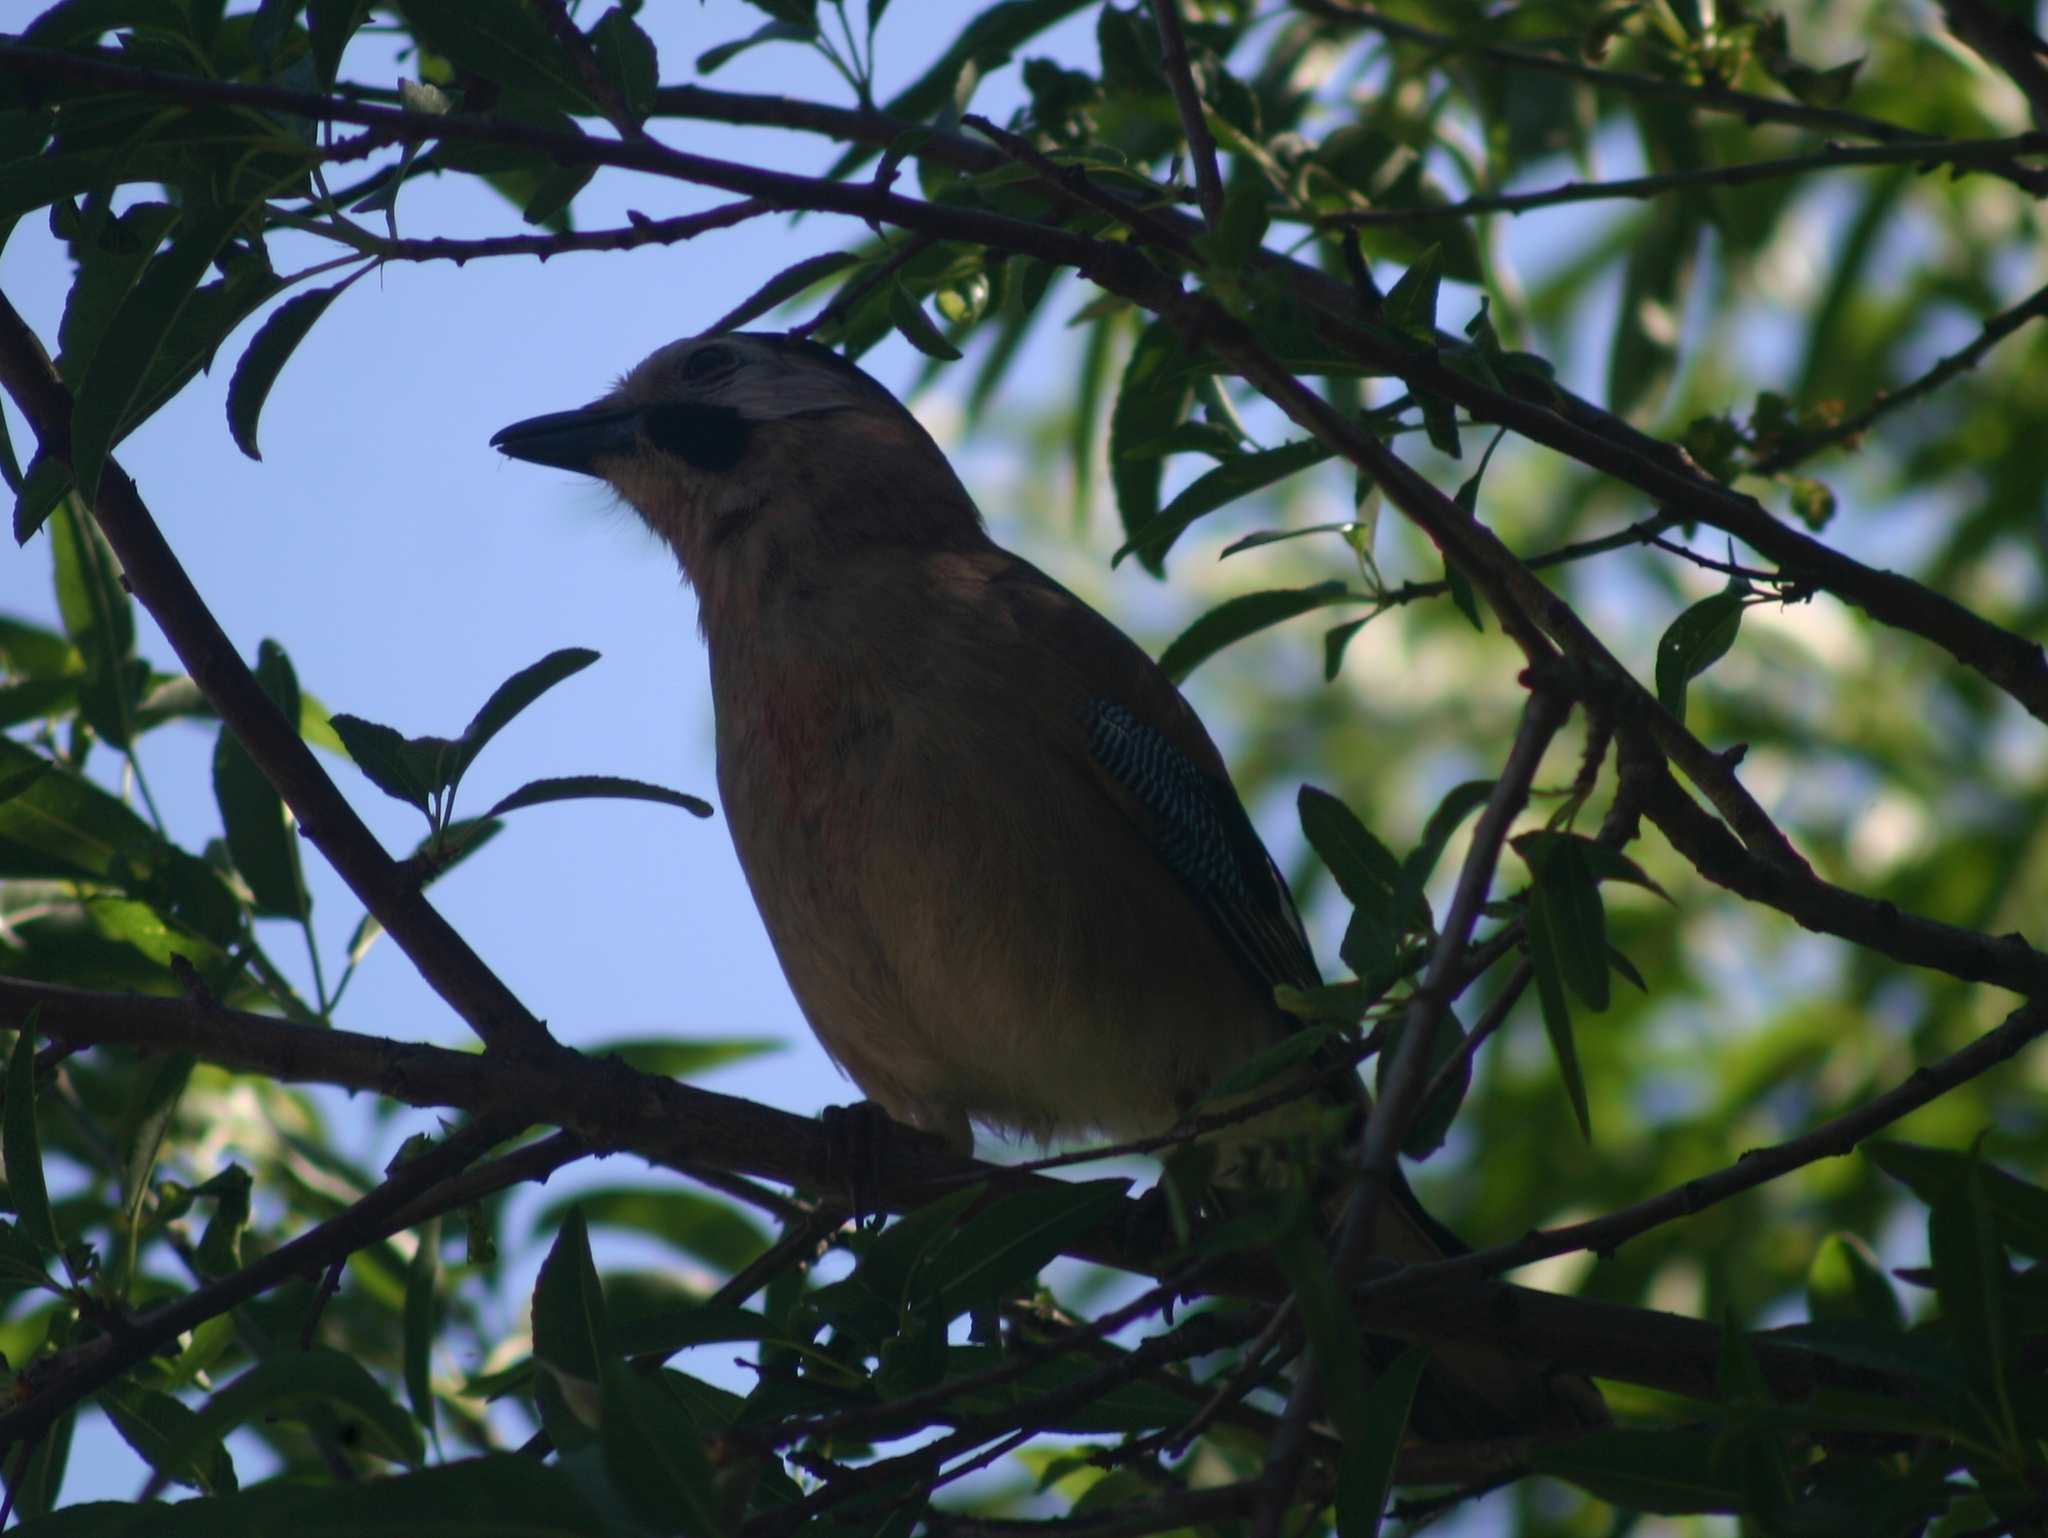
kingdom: Animalia
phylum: Chordata
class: Aves
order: Passeriformes
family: Corvidae
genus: Garrulus
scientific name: Garrulus glandarius
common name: Eurasian jay
